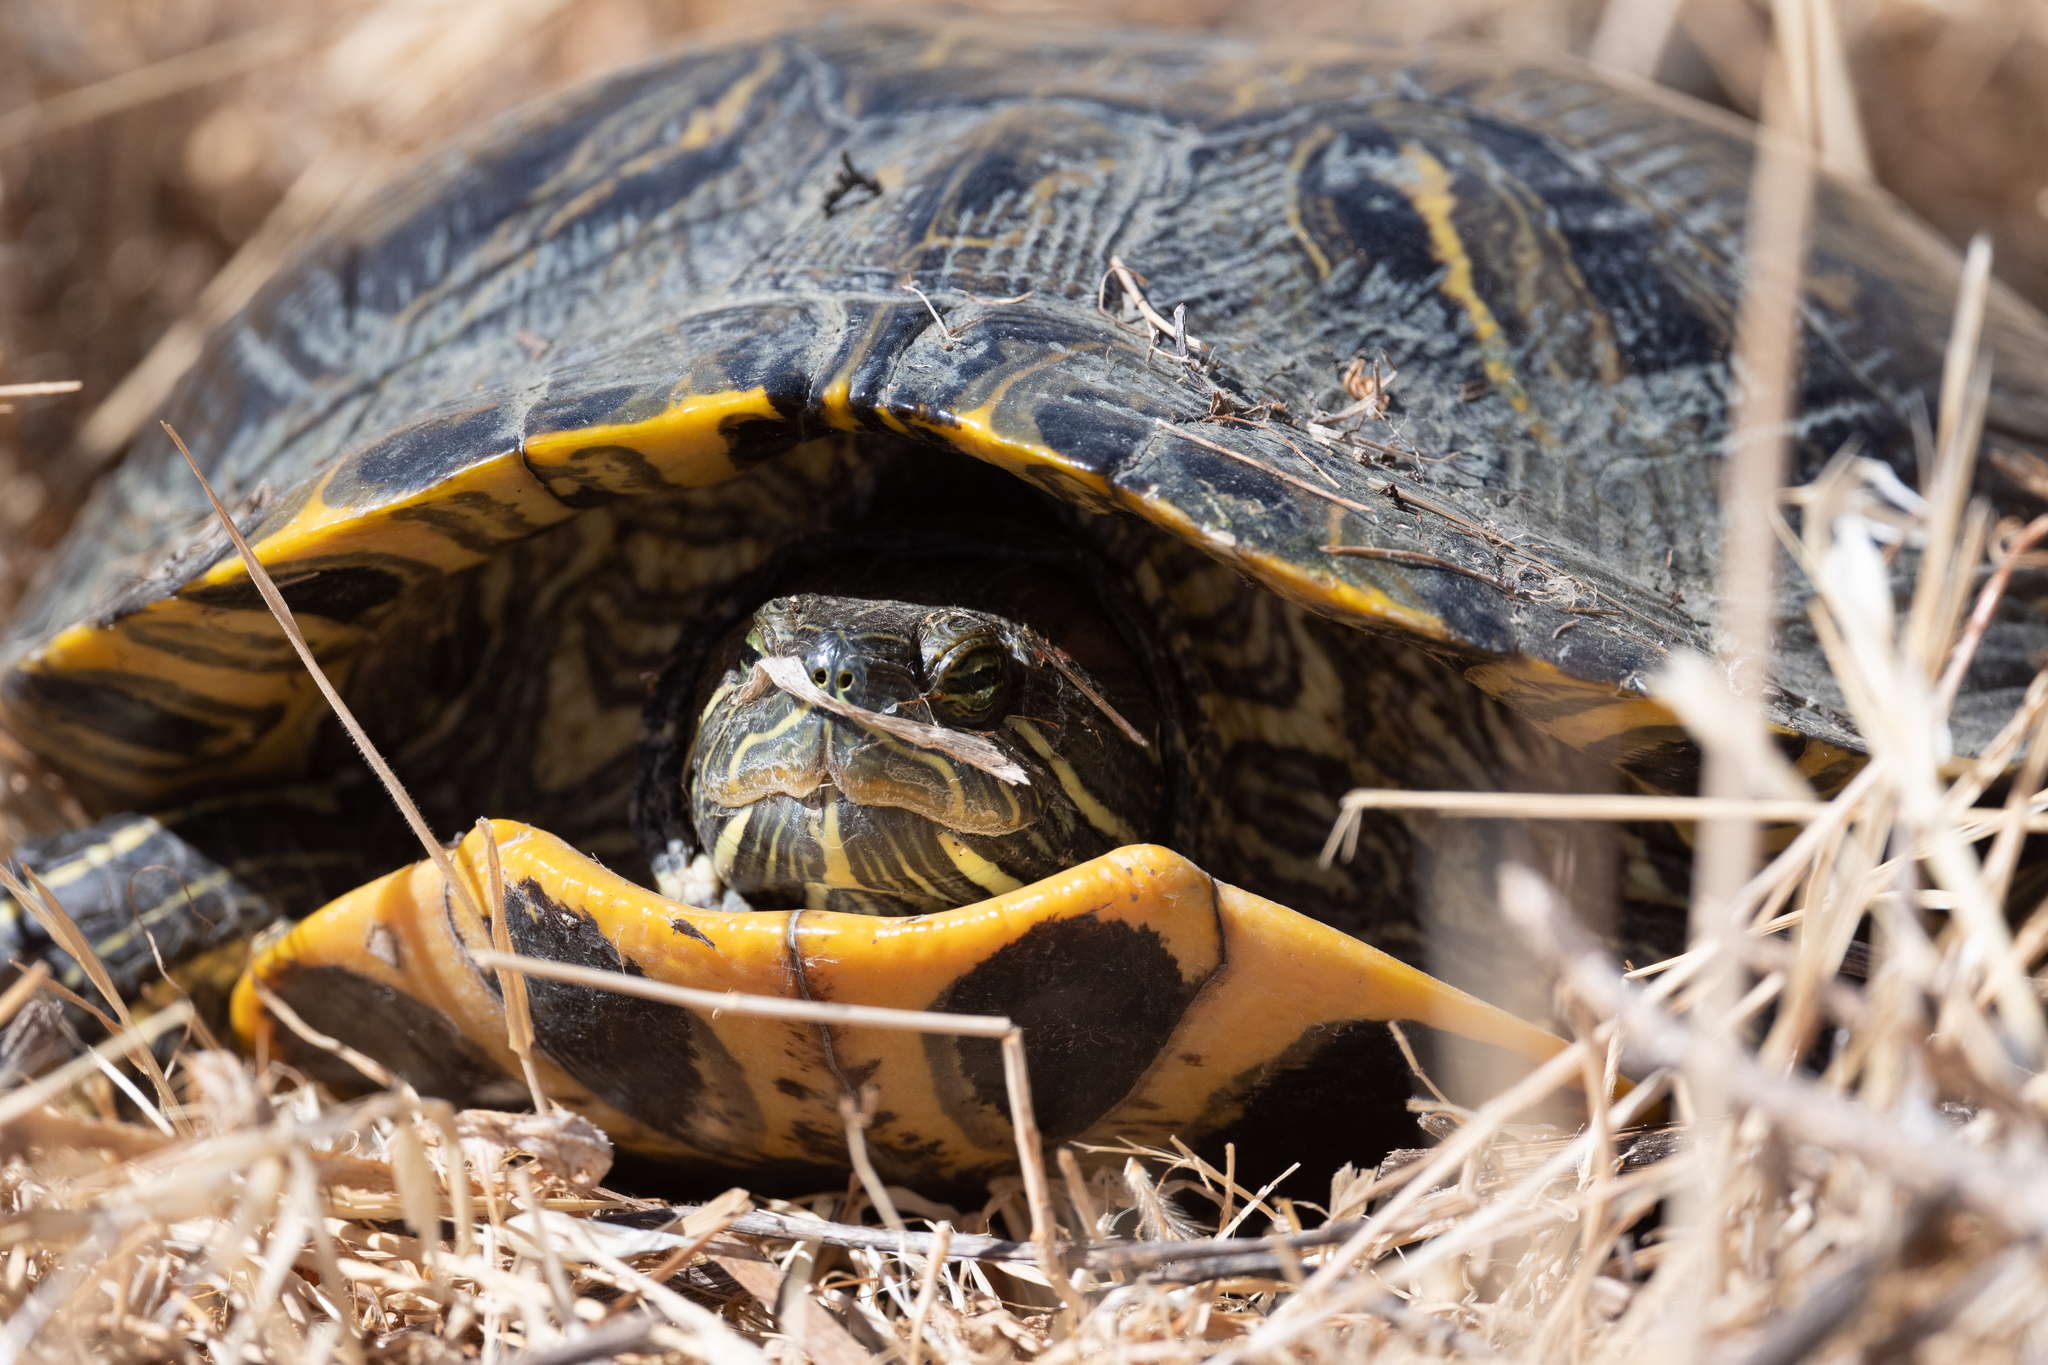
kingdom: Animalia
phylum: Chordata
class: Testudines
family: Emydidae
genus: Trachemys
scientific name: Trachemys scripta
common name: Slider
